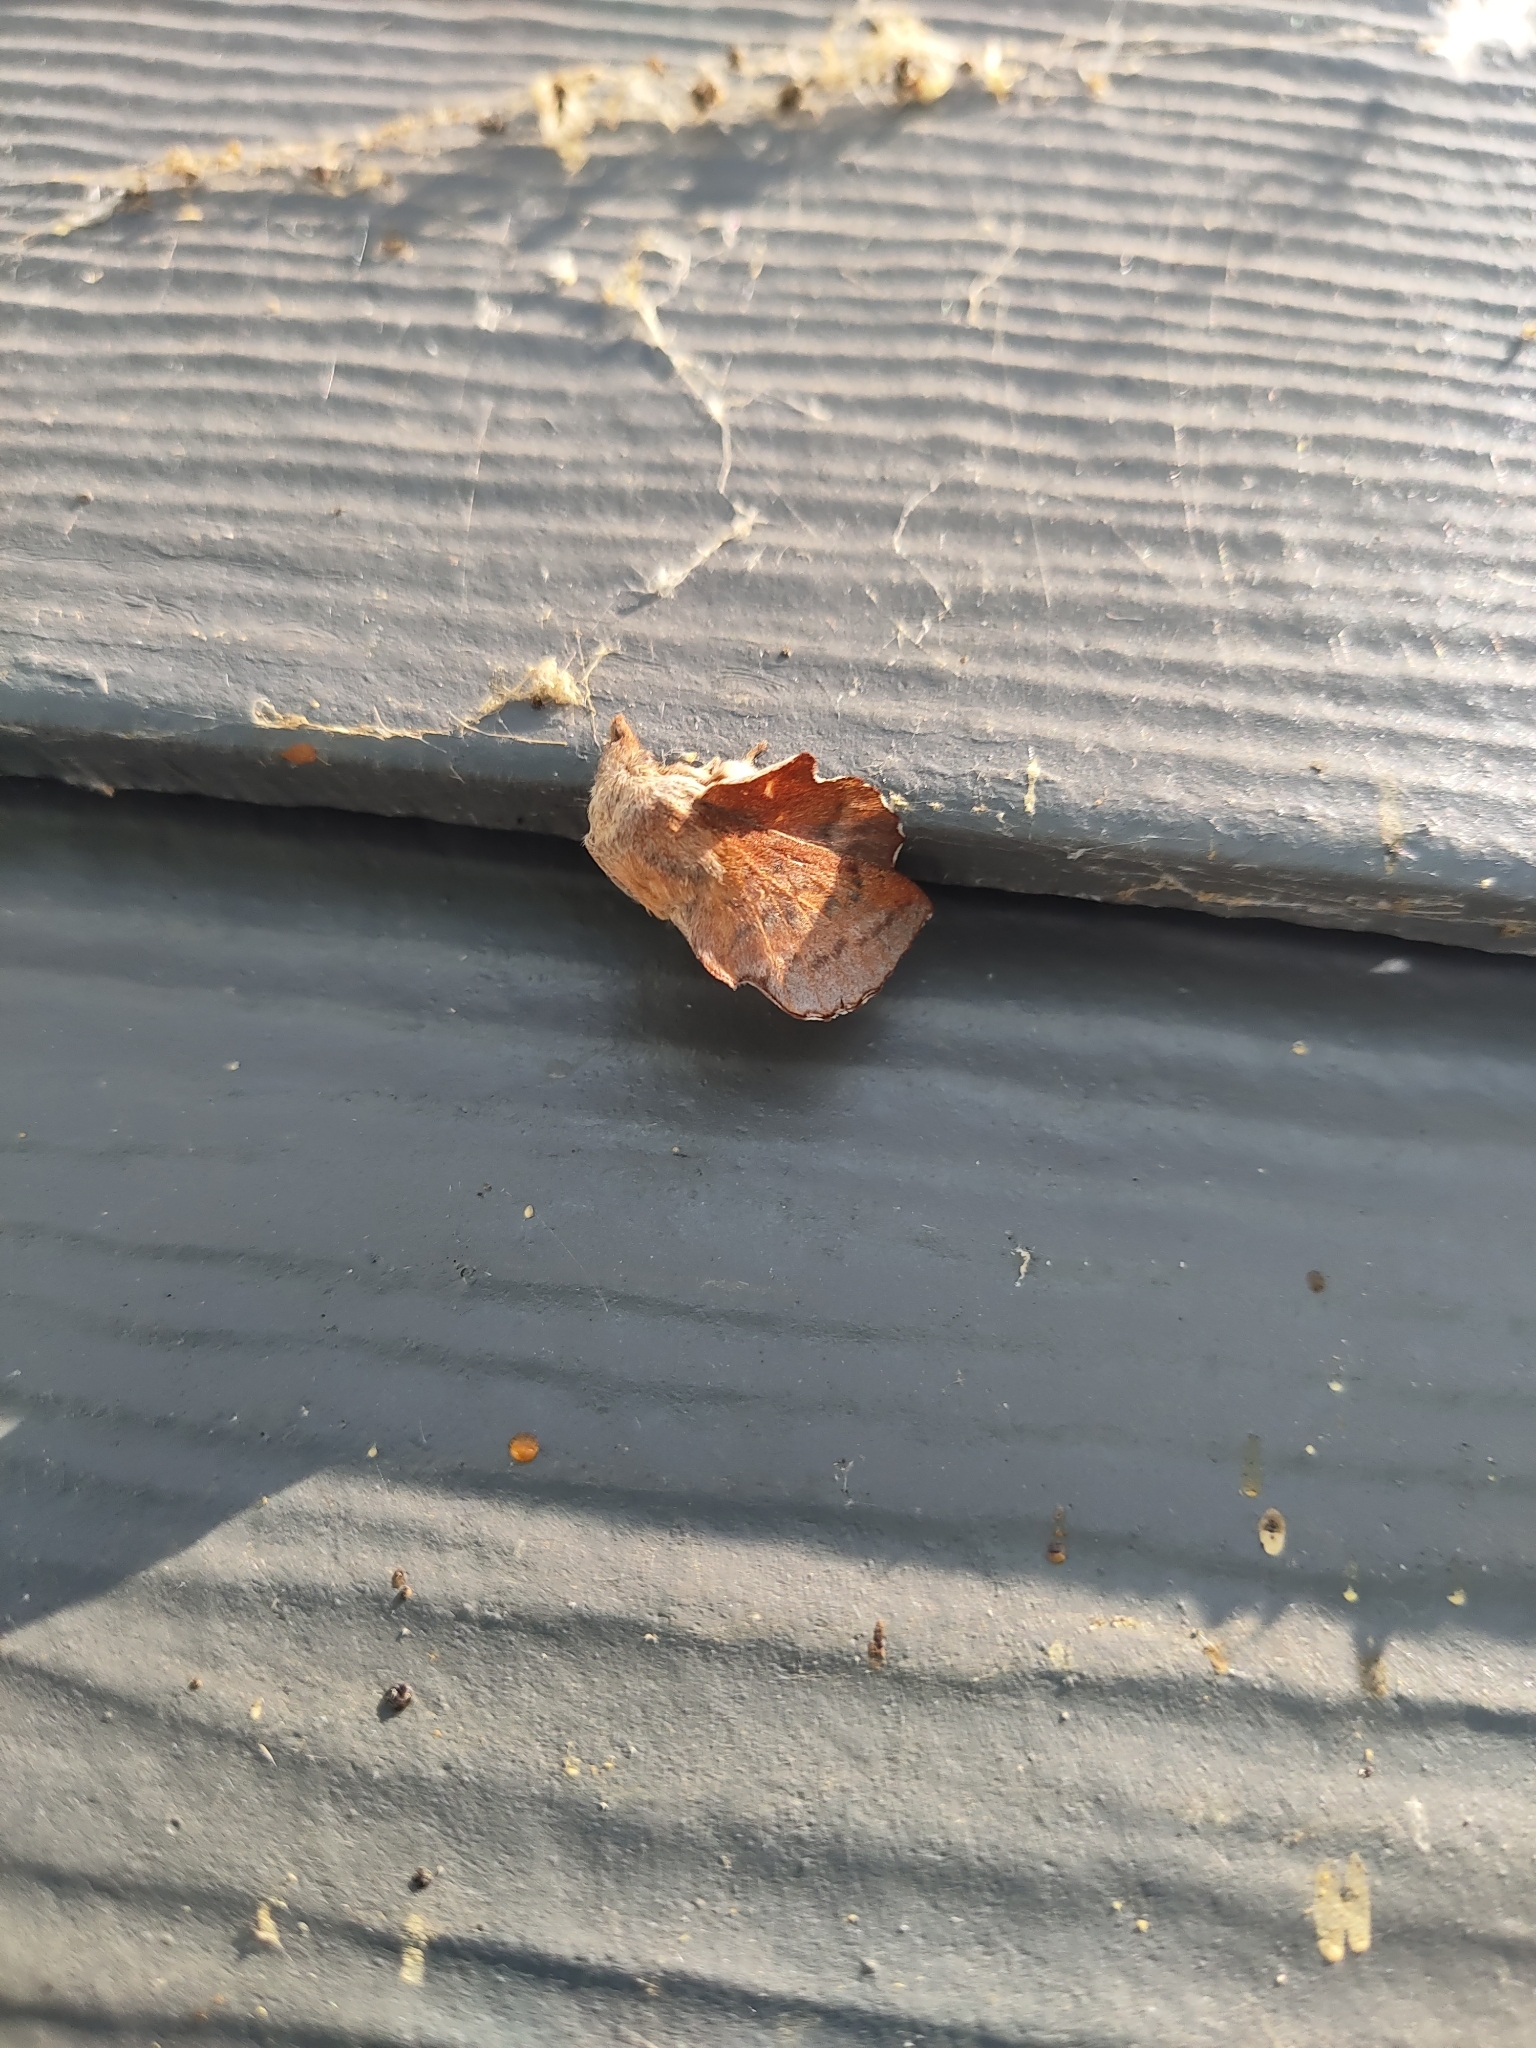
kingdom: Animalia
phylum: Arthropoda
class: Insecta
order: Lepidoptera
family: Lasiocampidae
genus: Phyllodesma
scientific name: Phyllodesma americana
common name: American lappet moth
